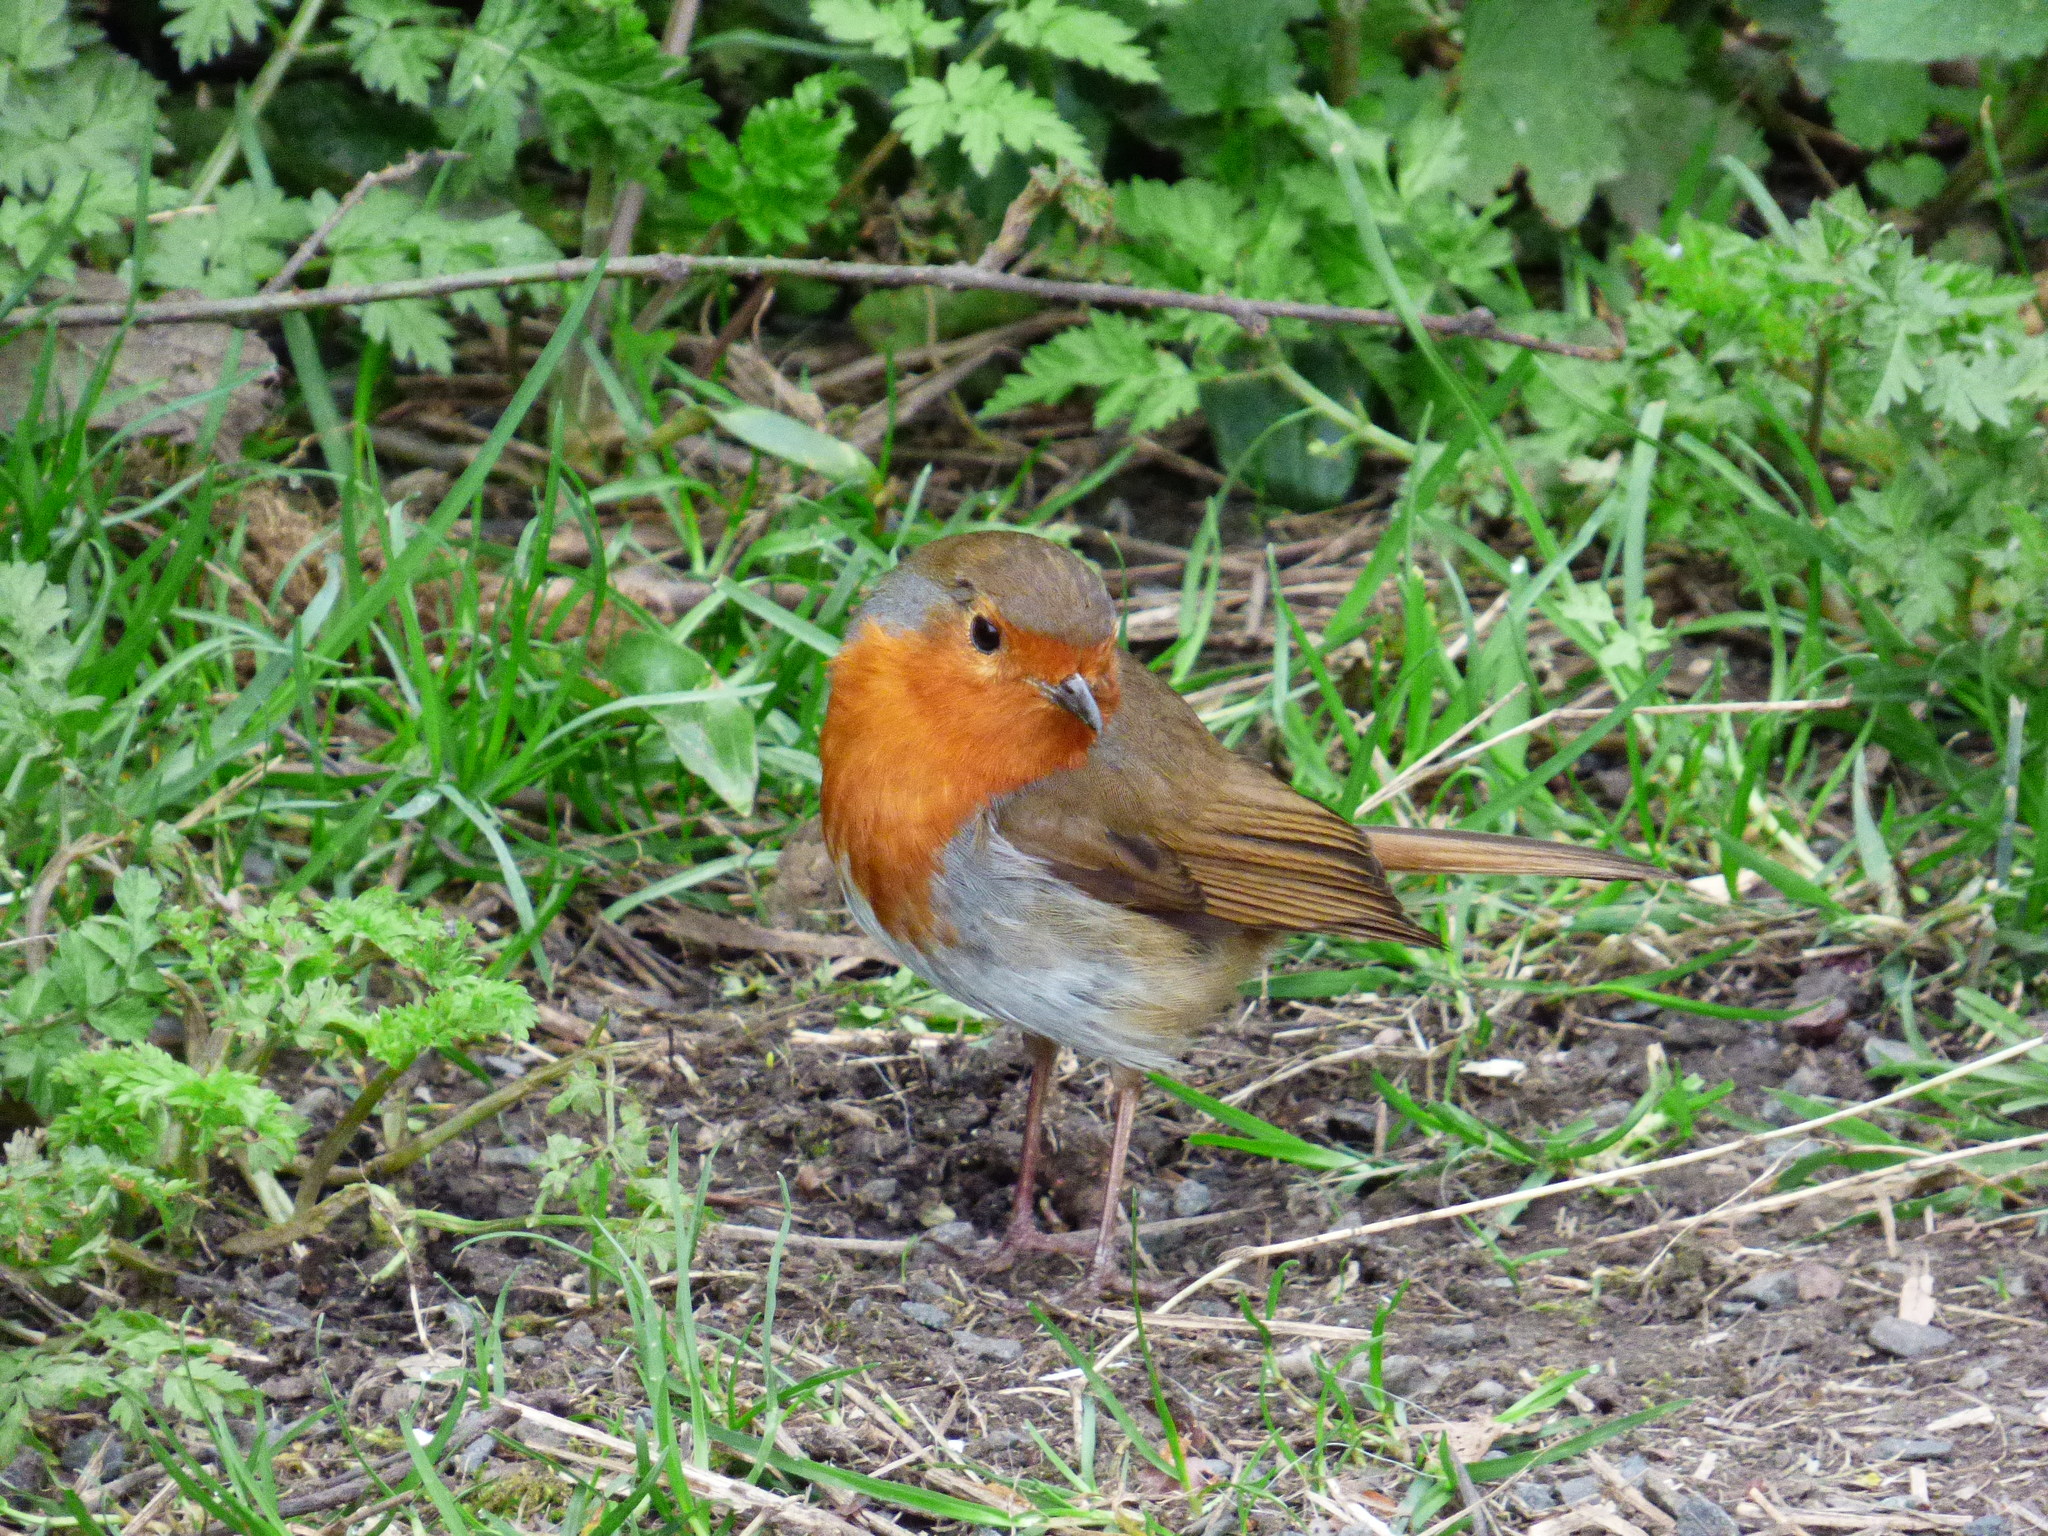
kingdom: Animalia
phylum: Chordata
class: Aves
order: Passeriformes
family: Muscicapidae
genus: Erithacus
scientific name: Erithacus rubecula
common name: European robin
